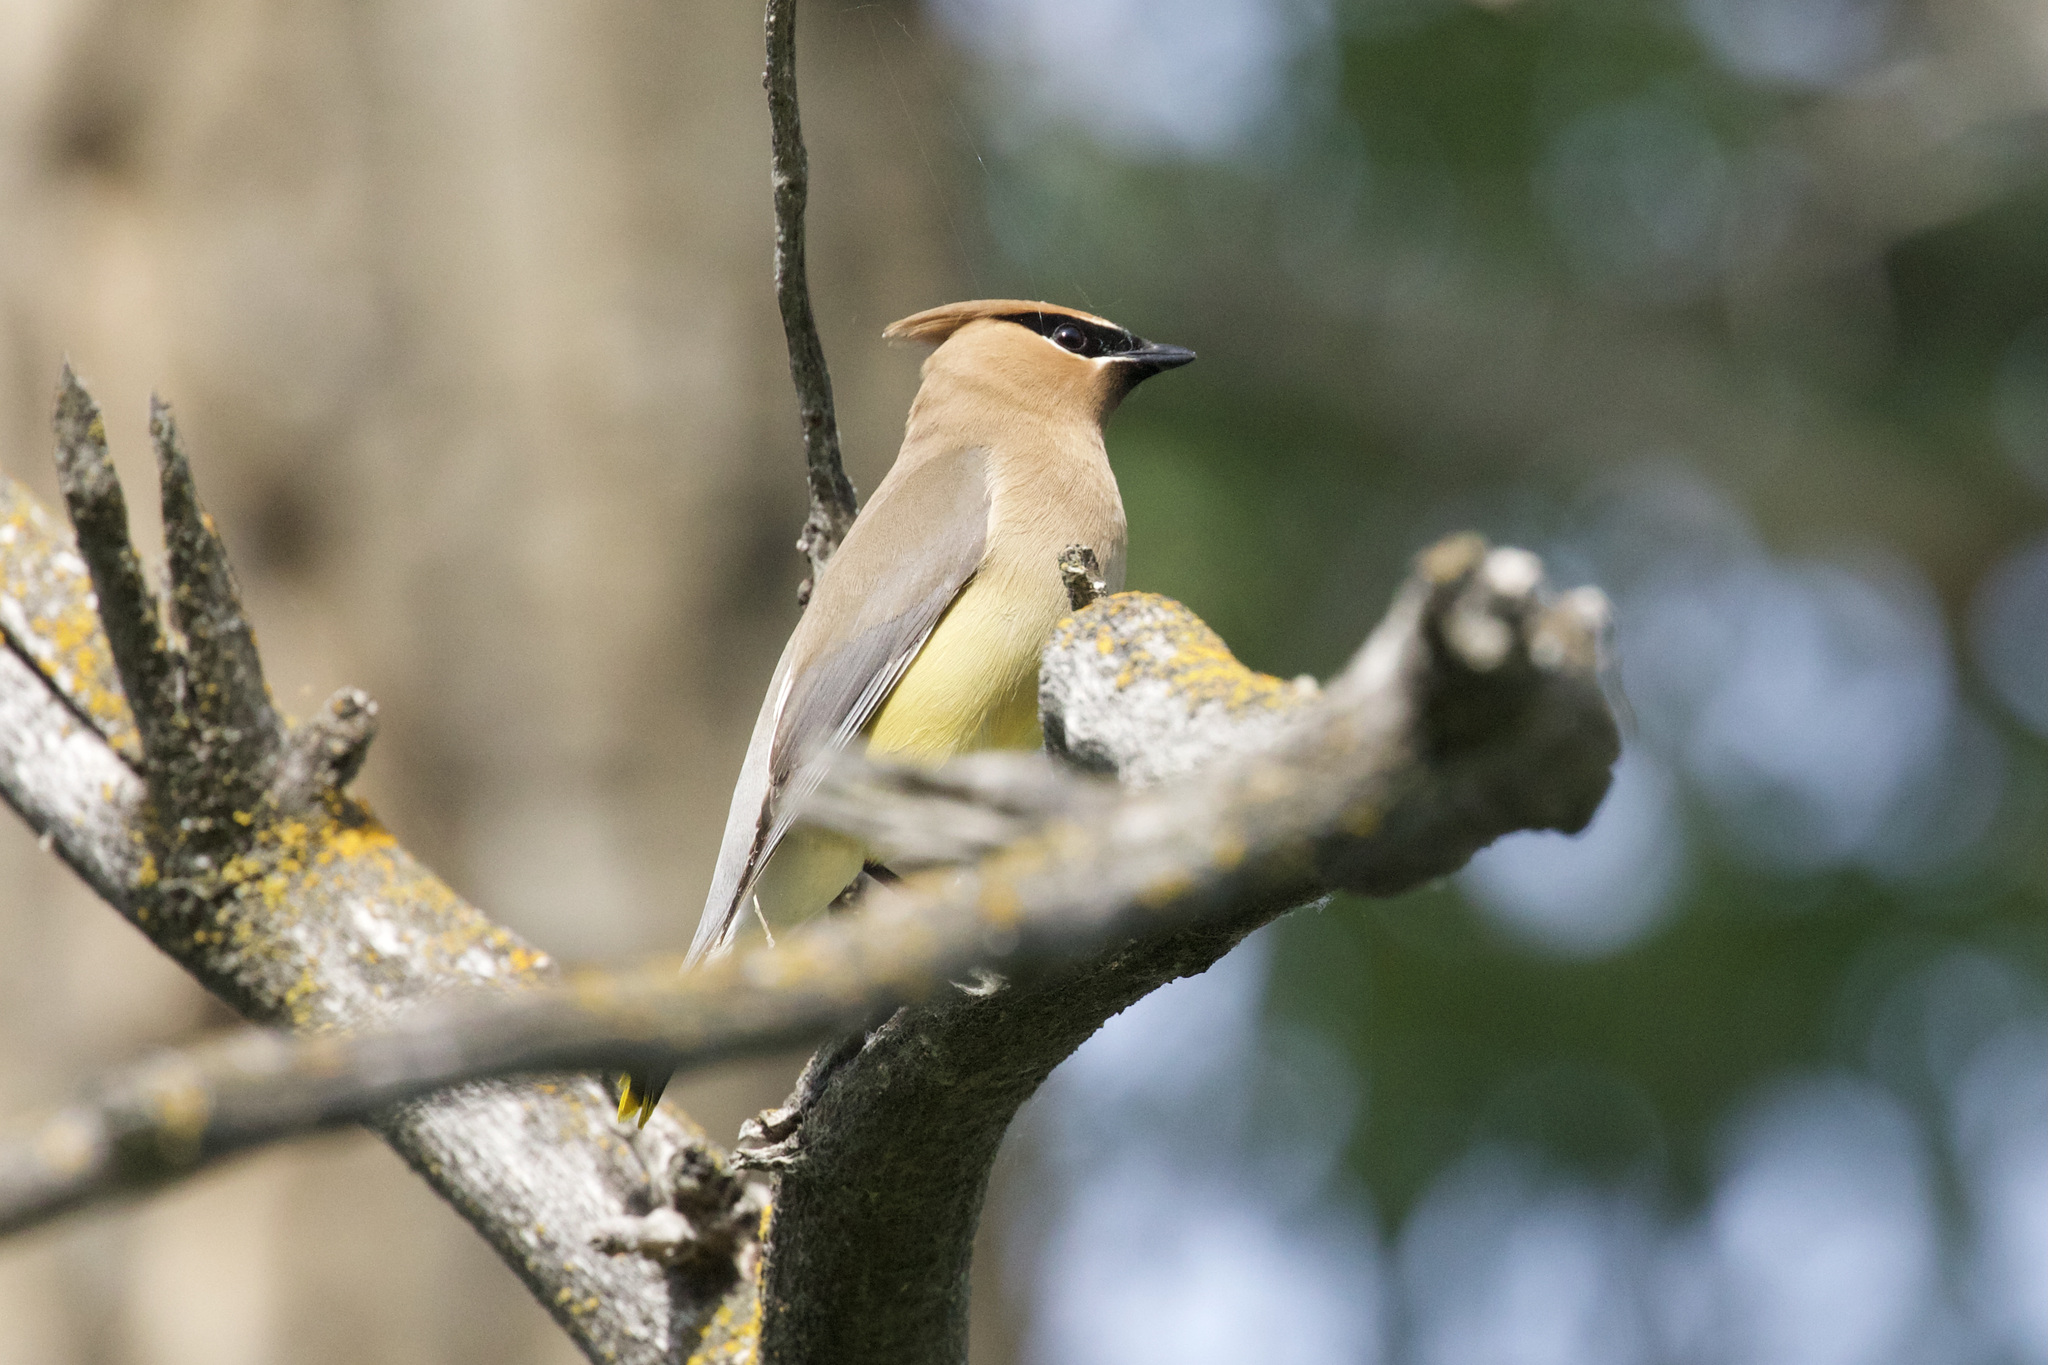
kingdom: Animalia
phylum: Chordata
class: Aves
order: Passeriformes
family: Bombycillidae
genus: Bombycilla
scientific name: Bombycilla cedrorum
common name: Cedar waxwing
